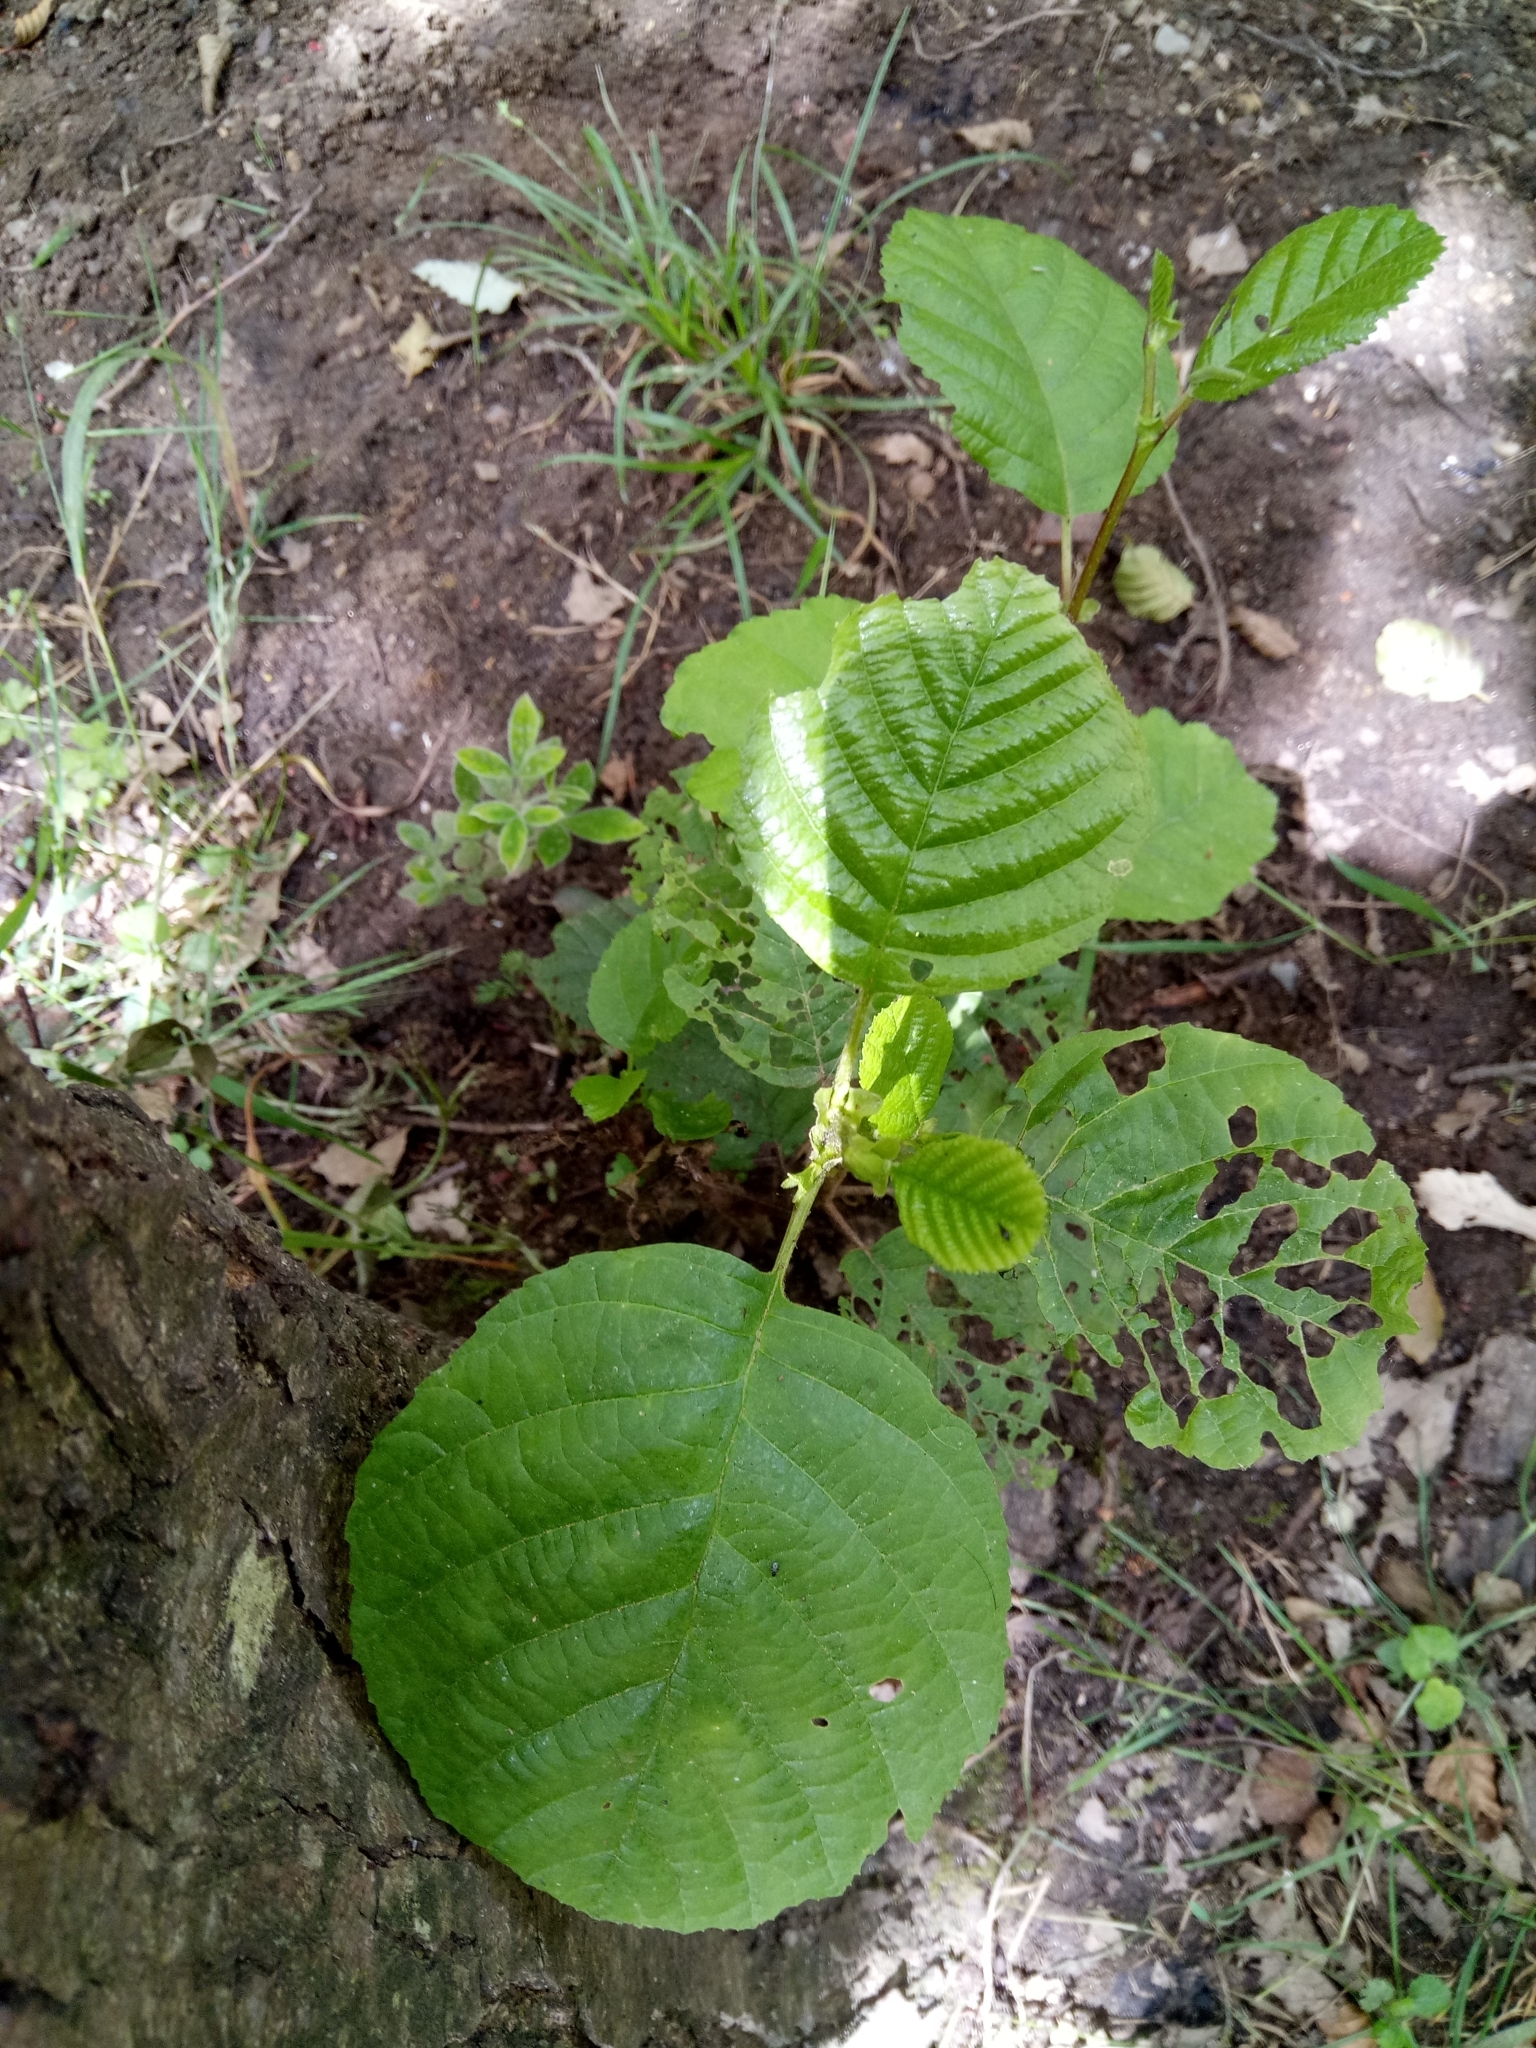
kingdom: Plantae
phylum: Tracheophyta
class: Magnoliopsida
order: Fagales
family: Betulaceae
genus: Alnus
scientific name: Alnus glutinosa
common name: Black alder
